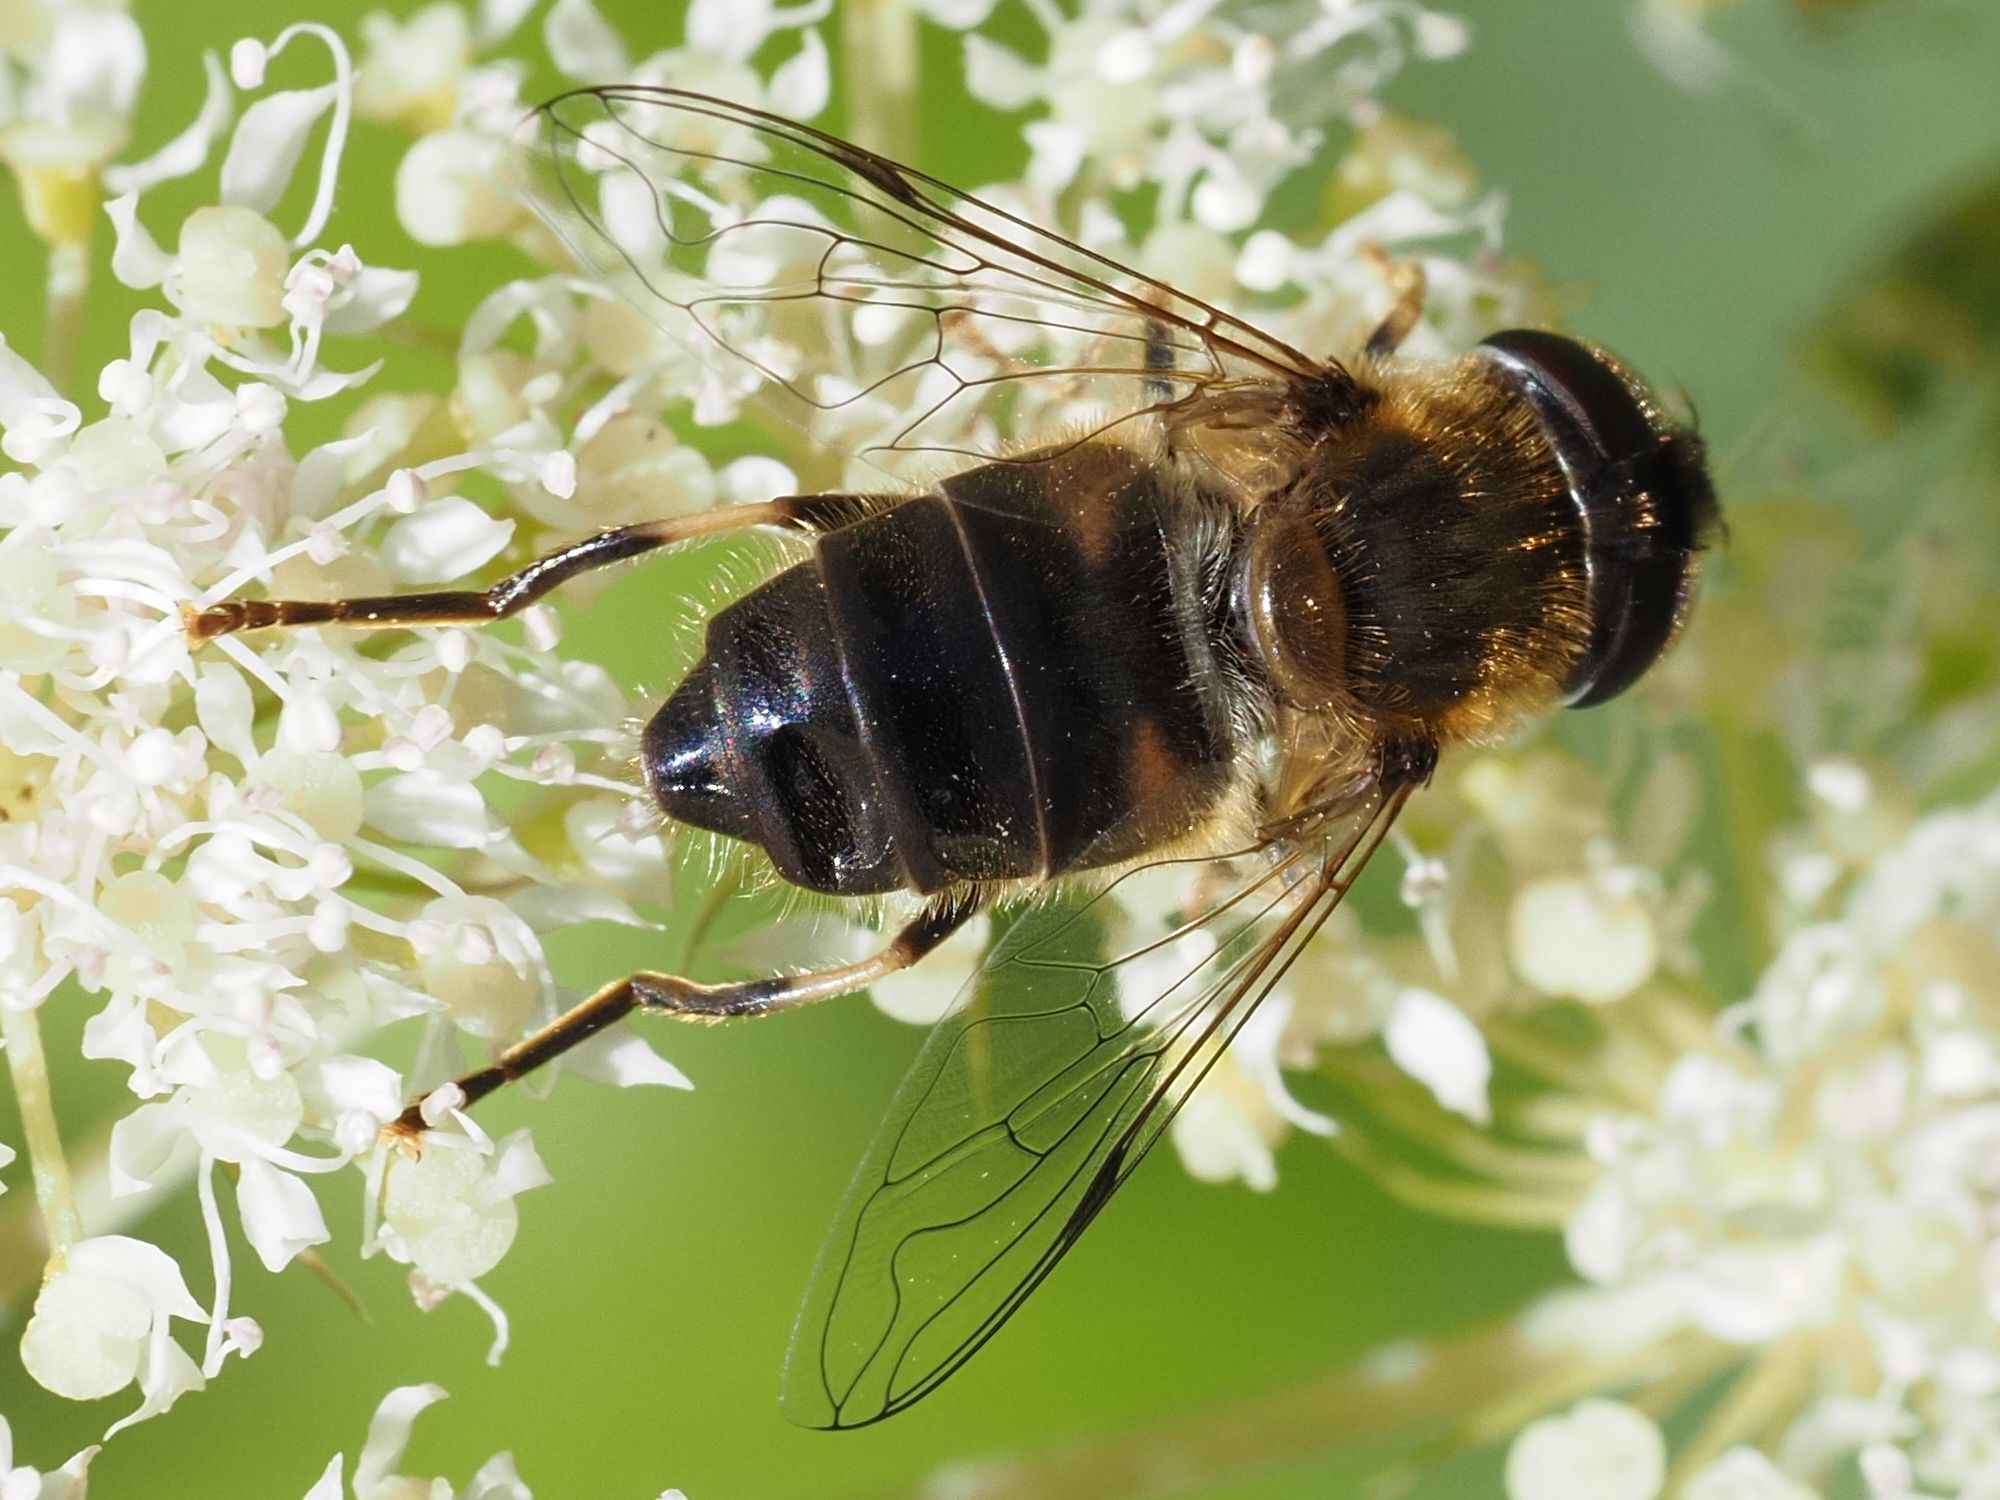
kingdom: Animalia
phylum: Arthropoda
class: Insecta
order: Diptera
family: Syrphidae
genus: Eristalis
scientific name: Eristalis pertinax
